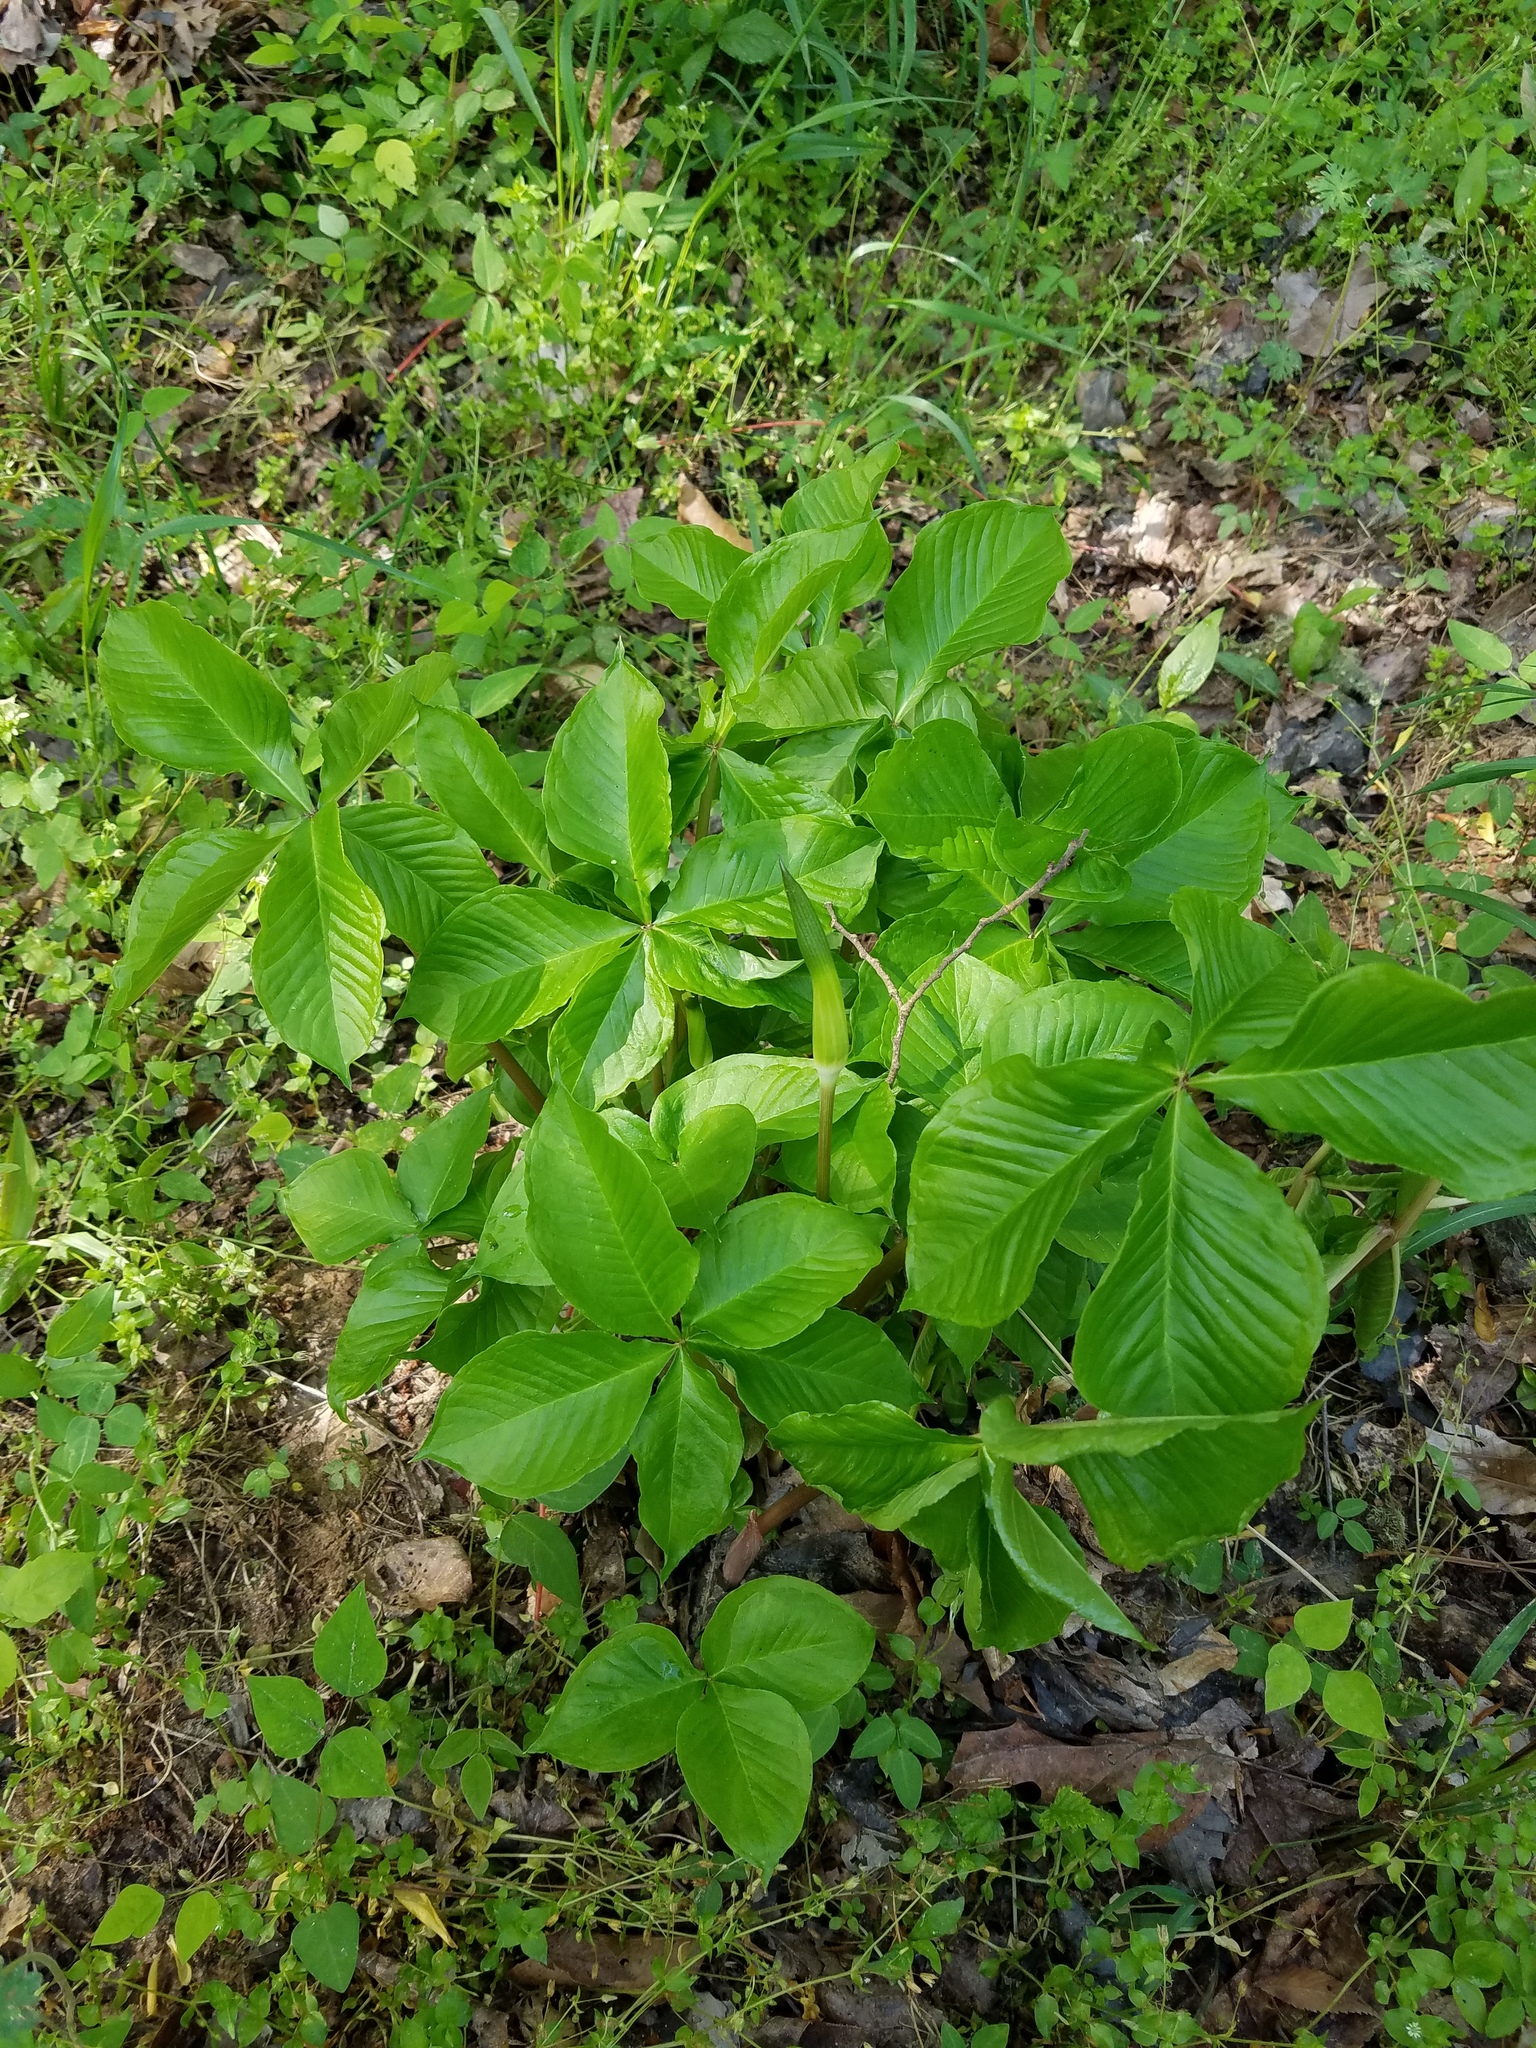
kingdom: Plantae
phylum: Tracheophyta
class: Liliopsida
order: Alismatales
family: Araceae
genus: Arisaema
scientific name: Arisaema quinatum
